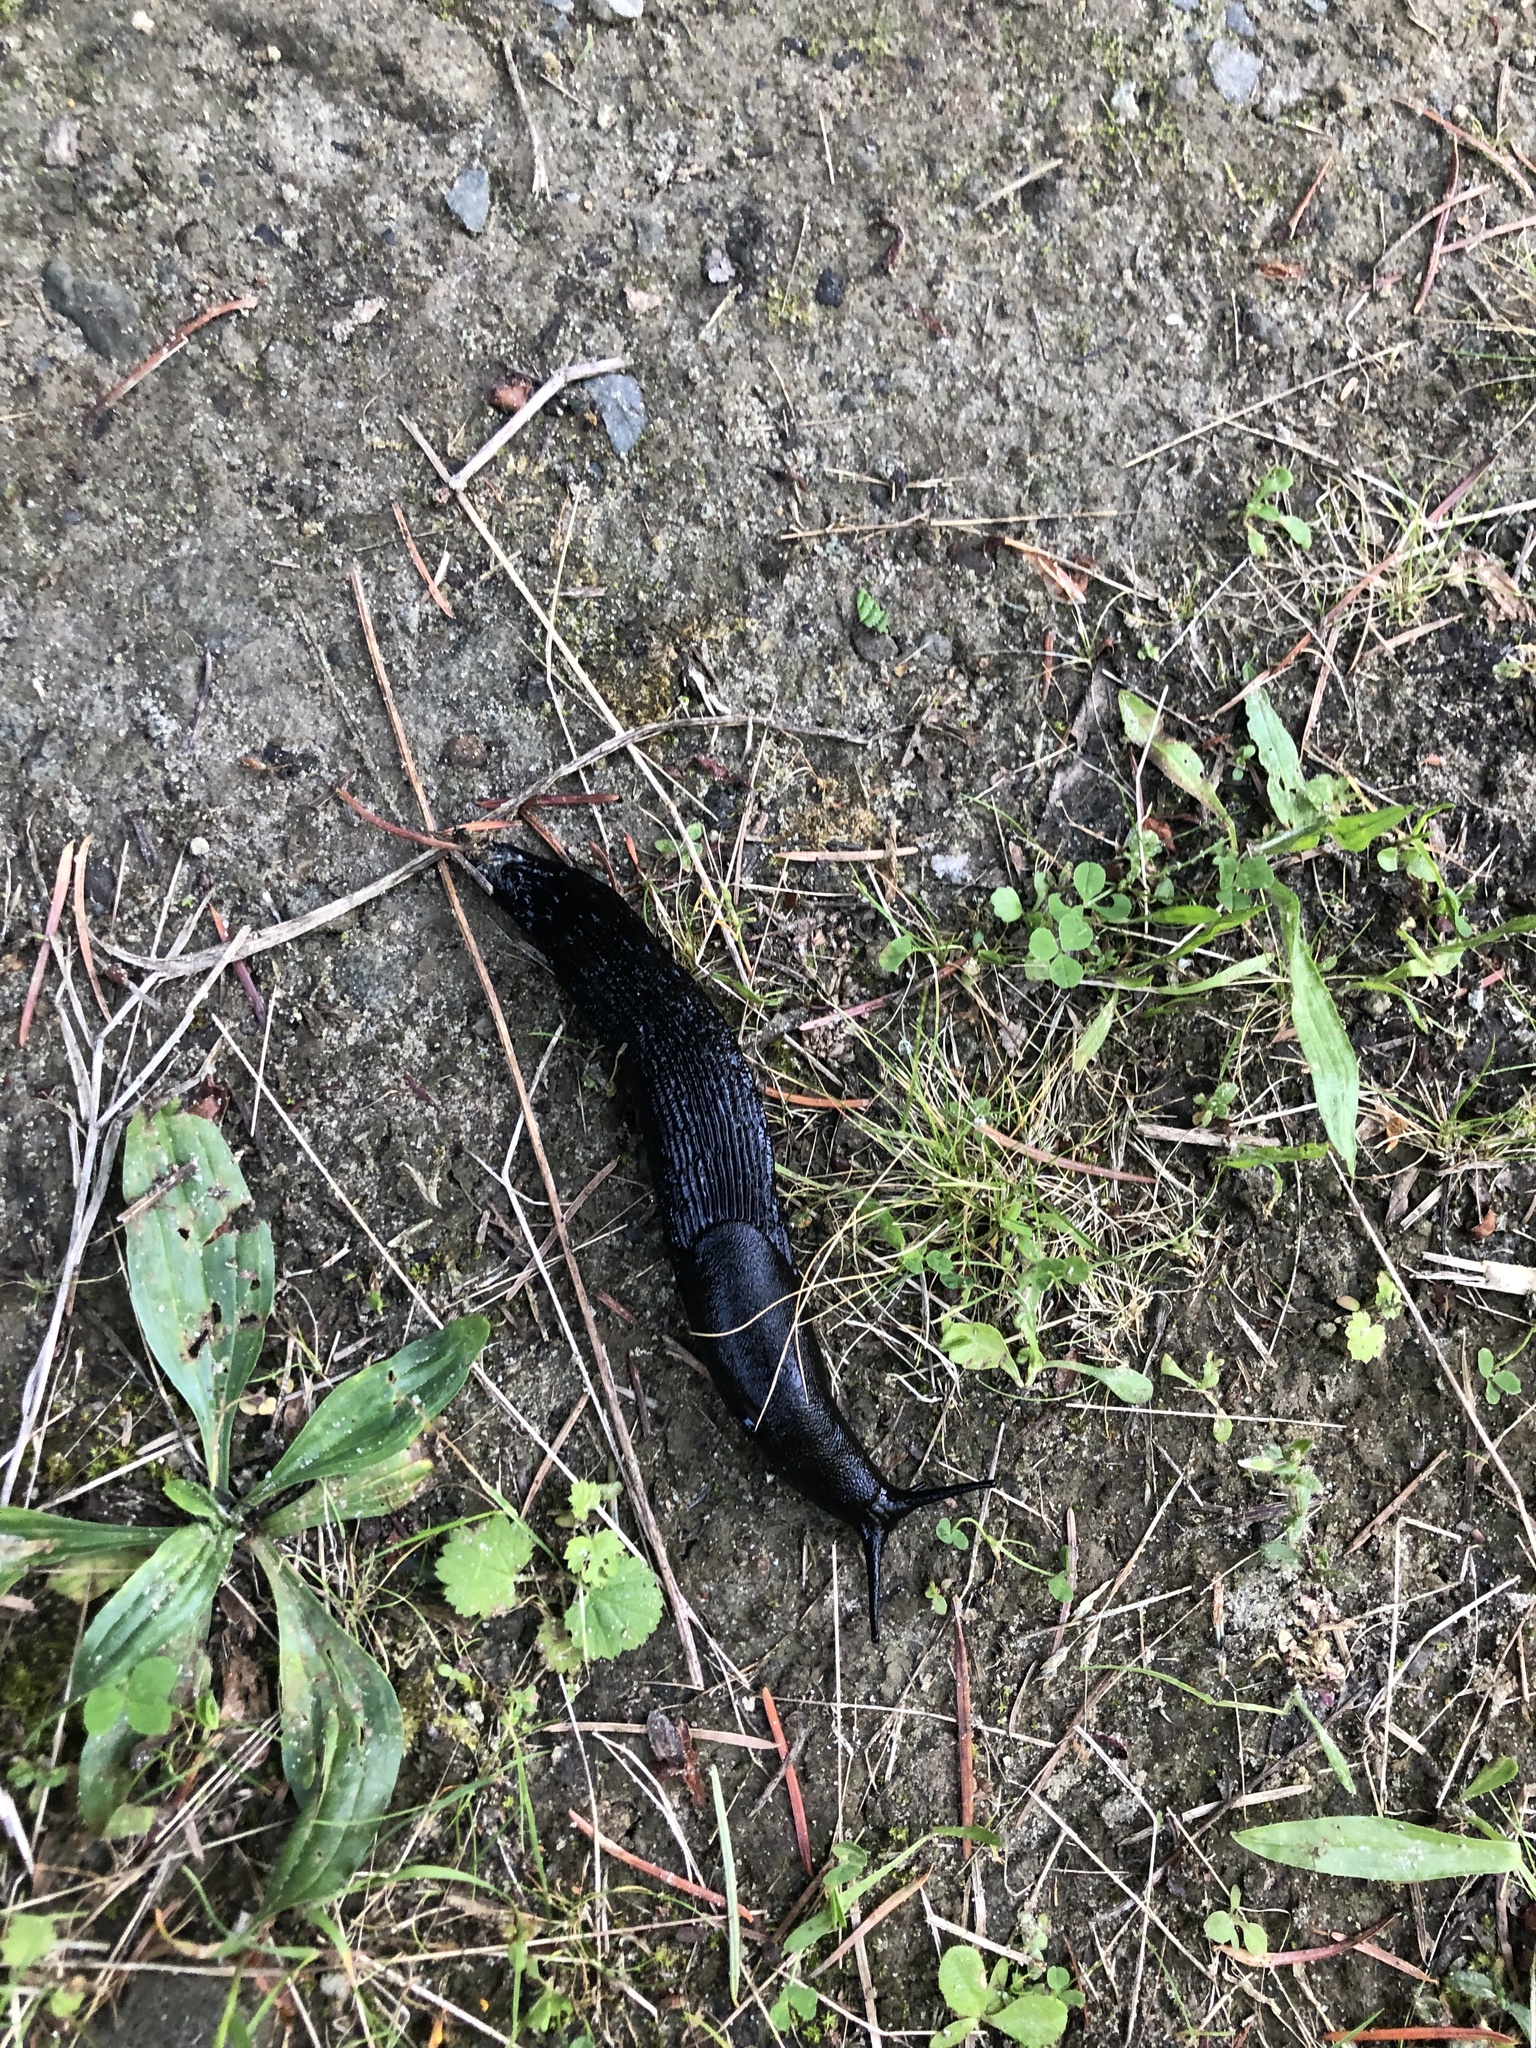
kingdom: Animalia
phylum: Mollusca
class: Gastropoda
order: Stylommatophora
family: Arionidae
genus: Arion
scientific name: Arion
